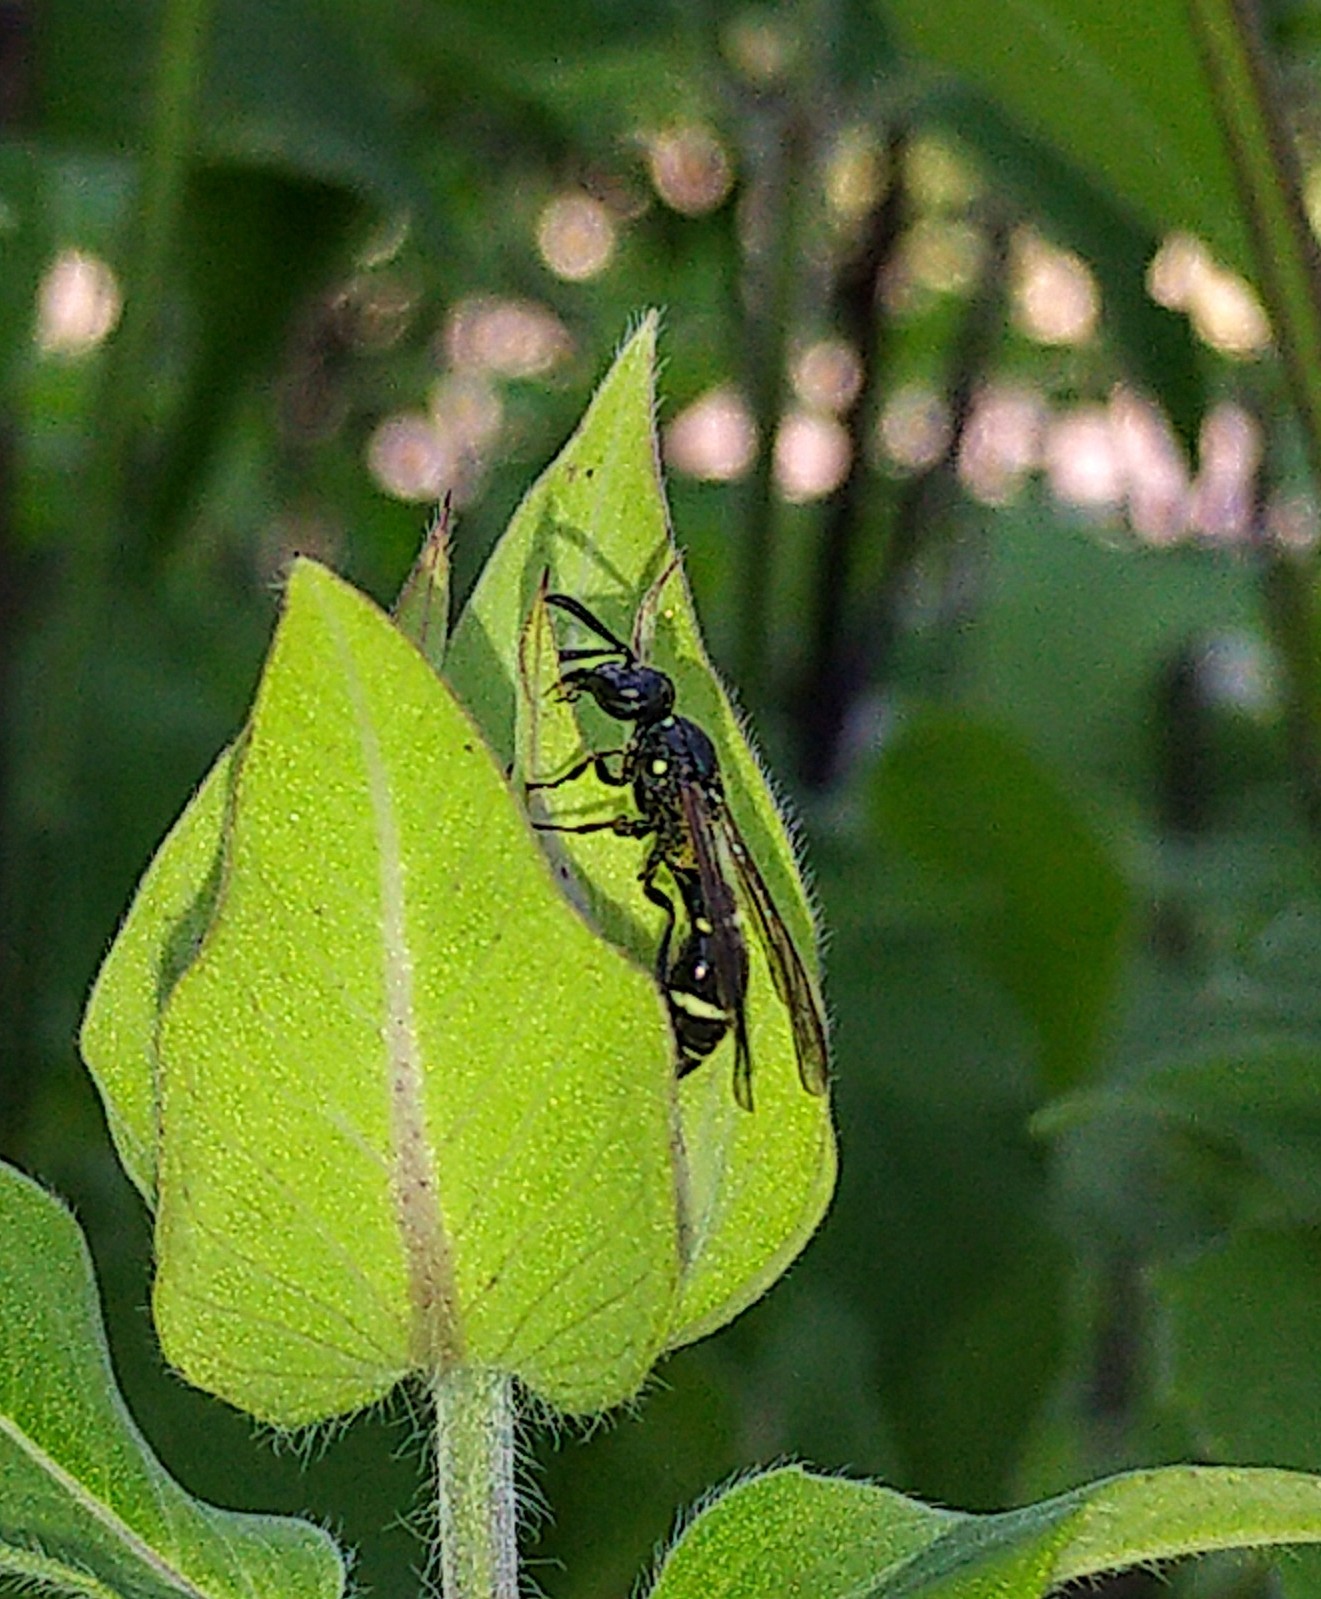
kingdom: Animalia
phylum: Arthropoda
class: Insecta
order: Hymenoptera
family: Eumenidae
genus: Symmorphus
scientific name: Symmorphus
